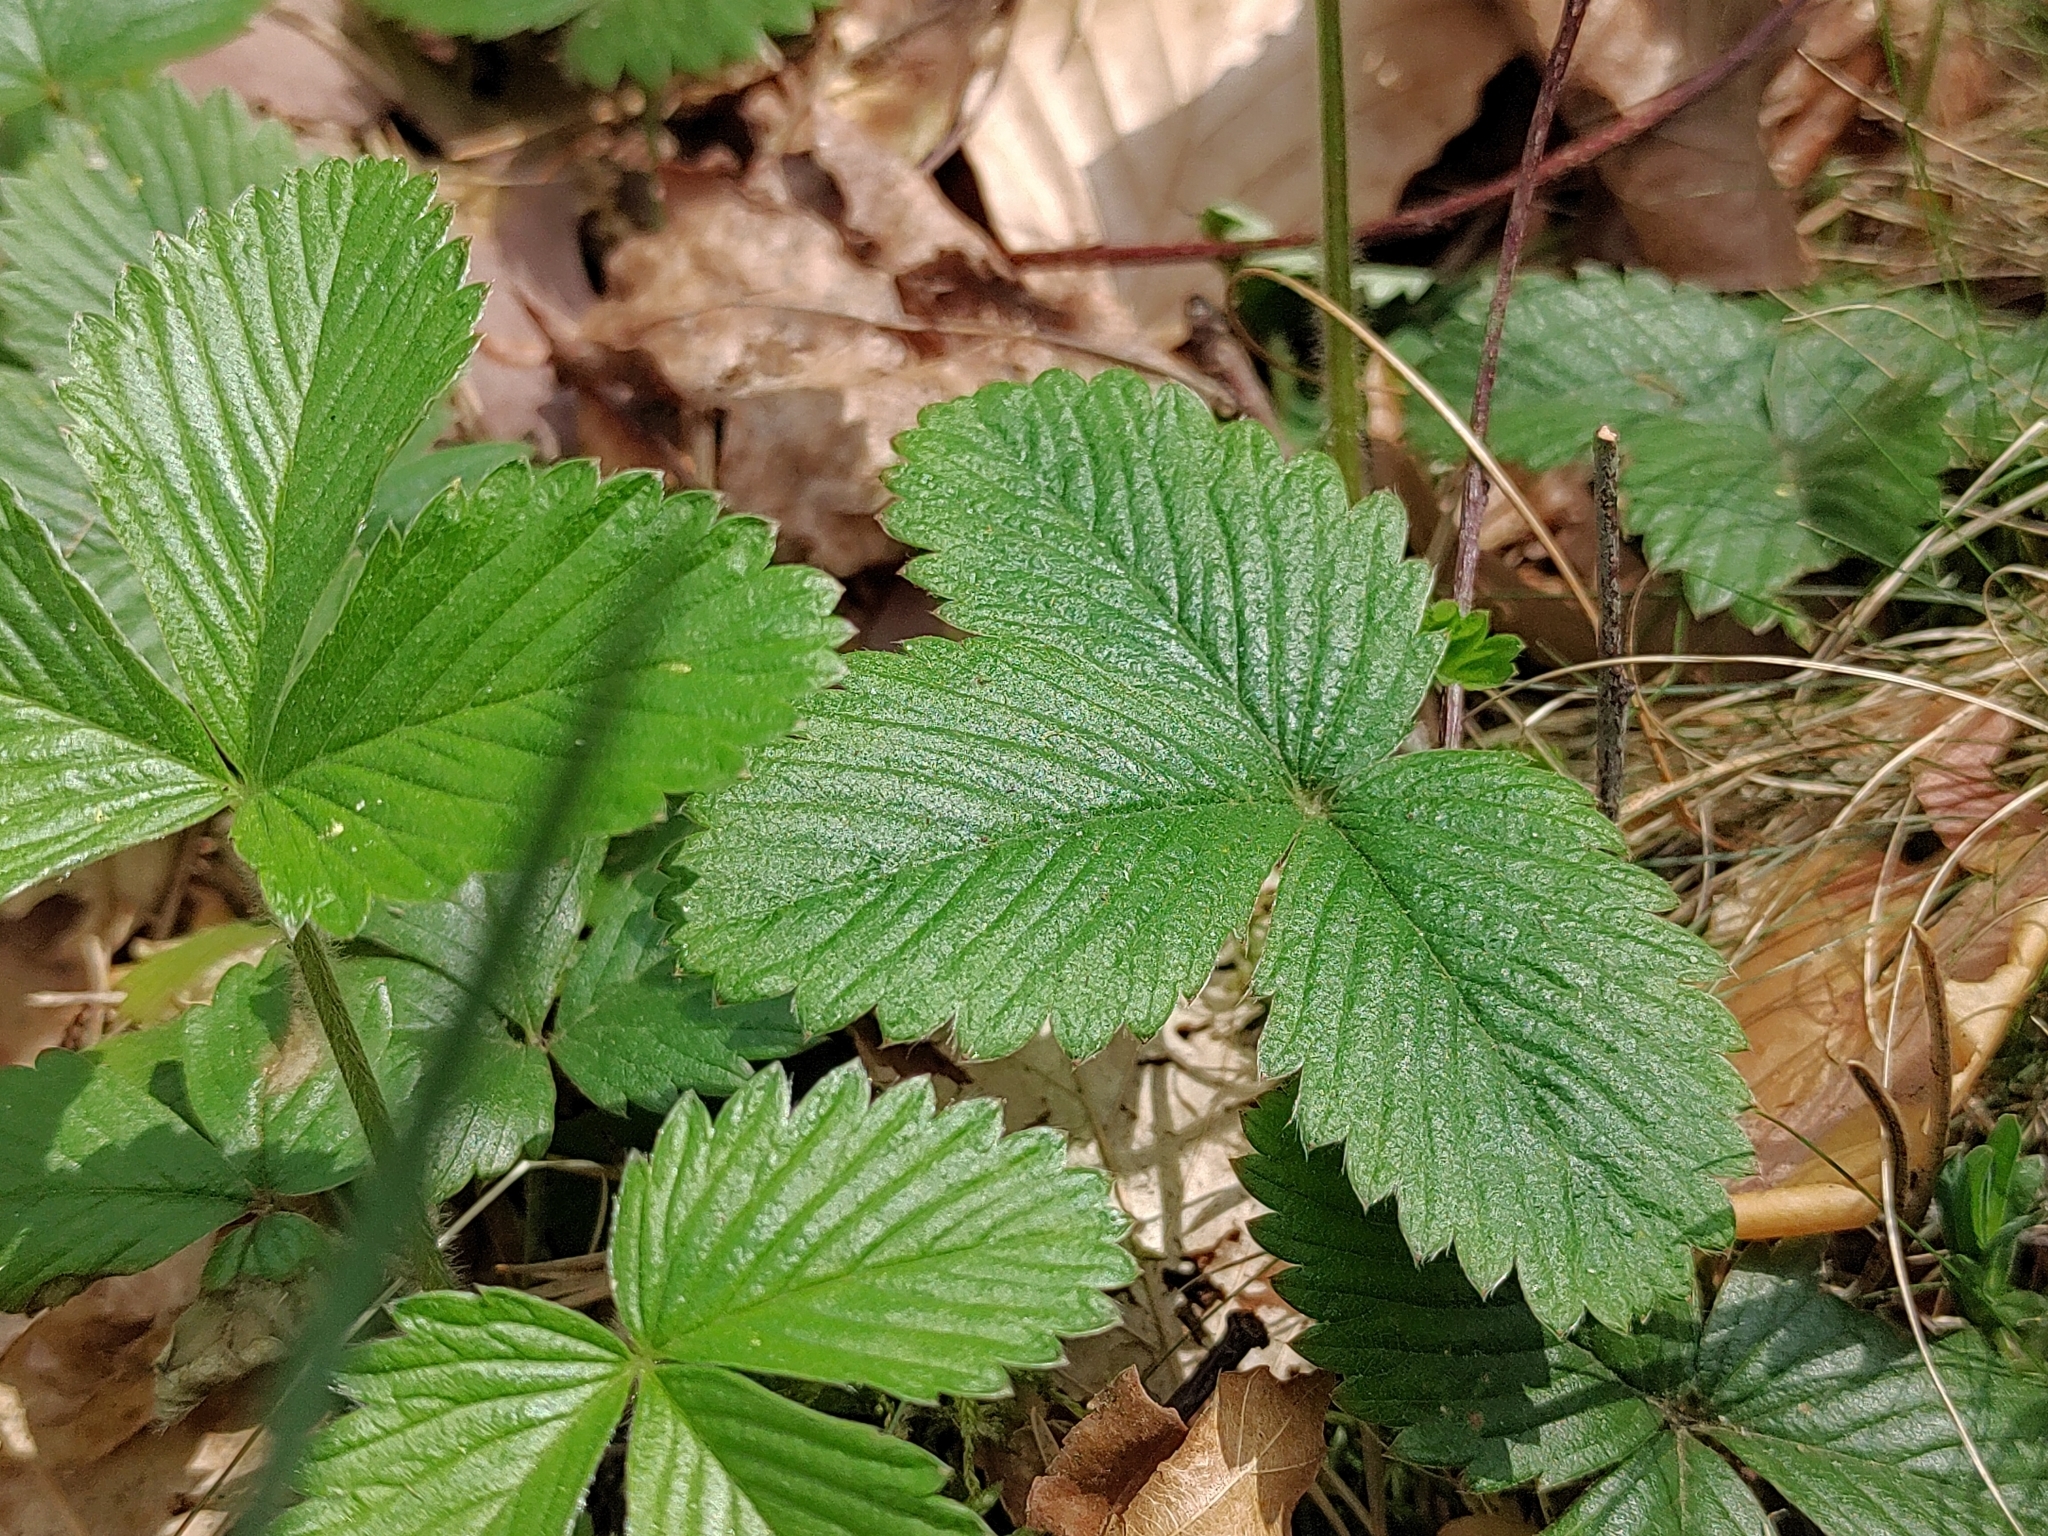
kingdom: Plantae
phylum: Tracheophyta
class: Magnoliopsida
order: Rosales
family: Rosaceae
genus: Fragaria
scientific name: Fragaria vesca
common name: Wild strawberry
